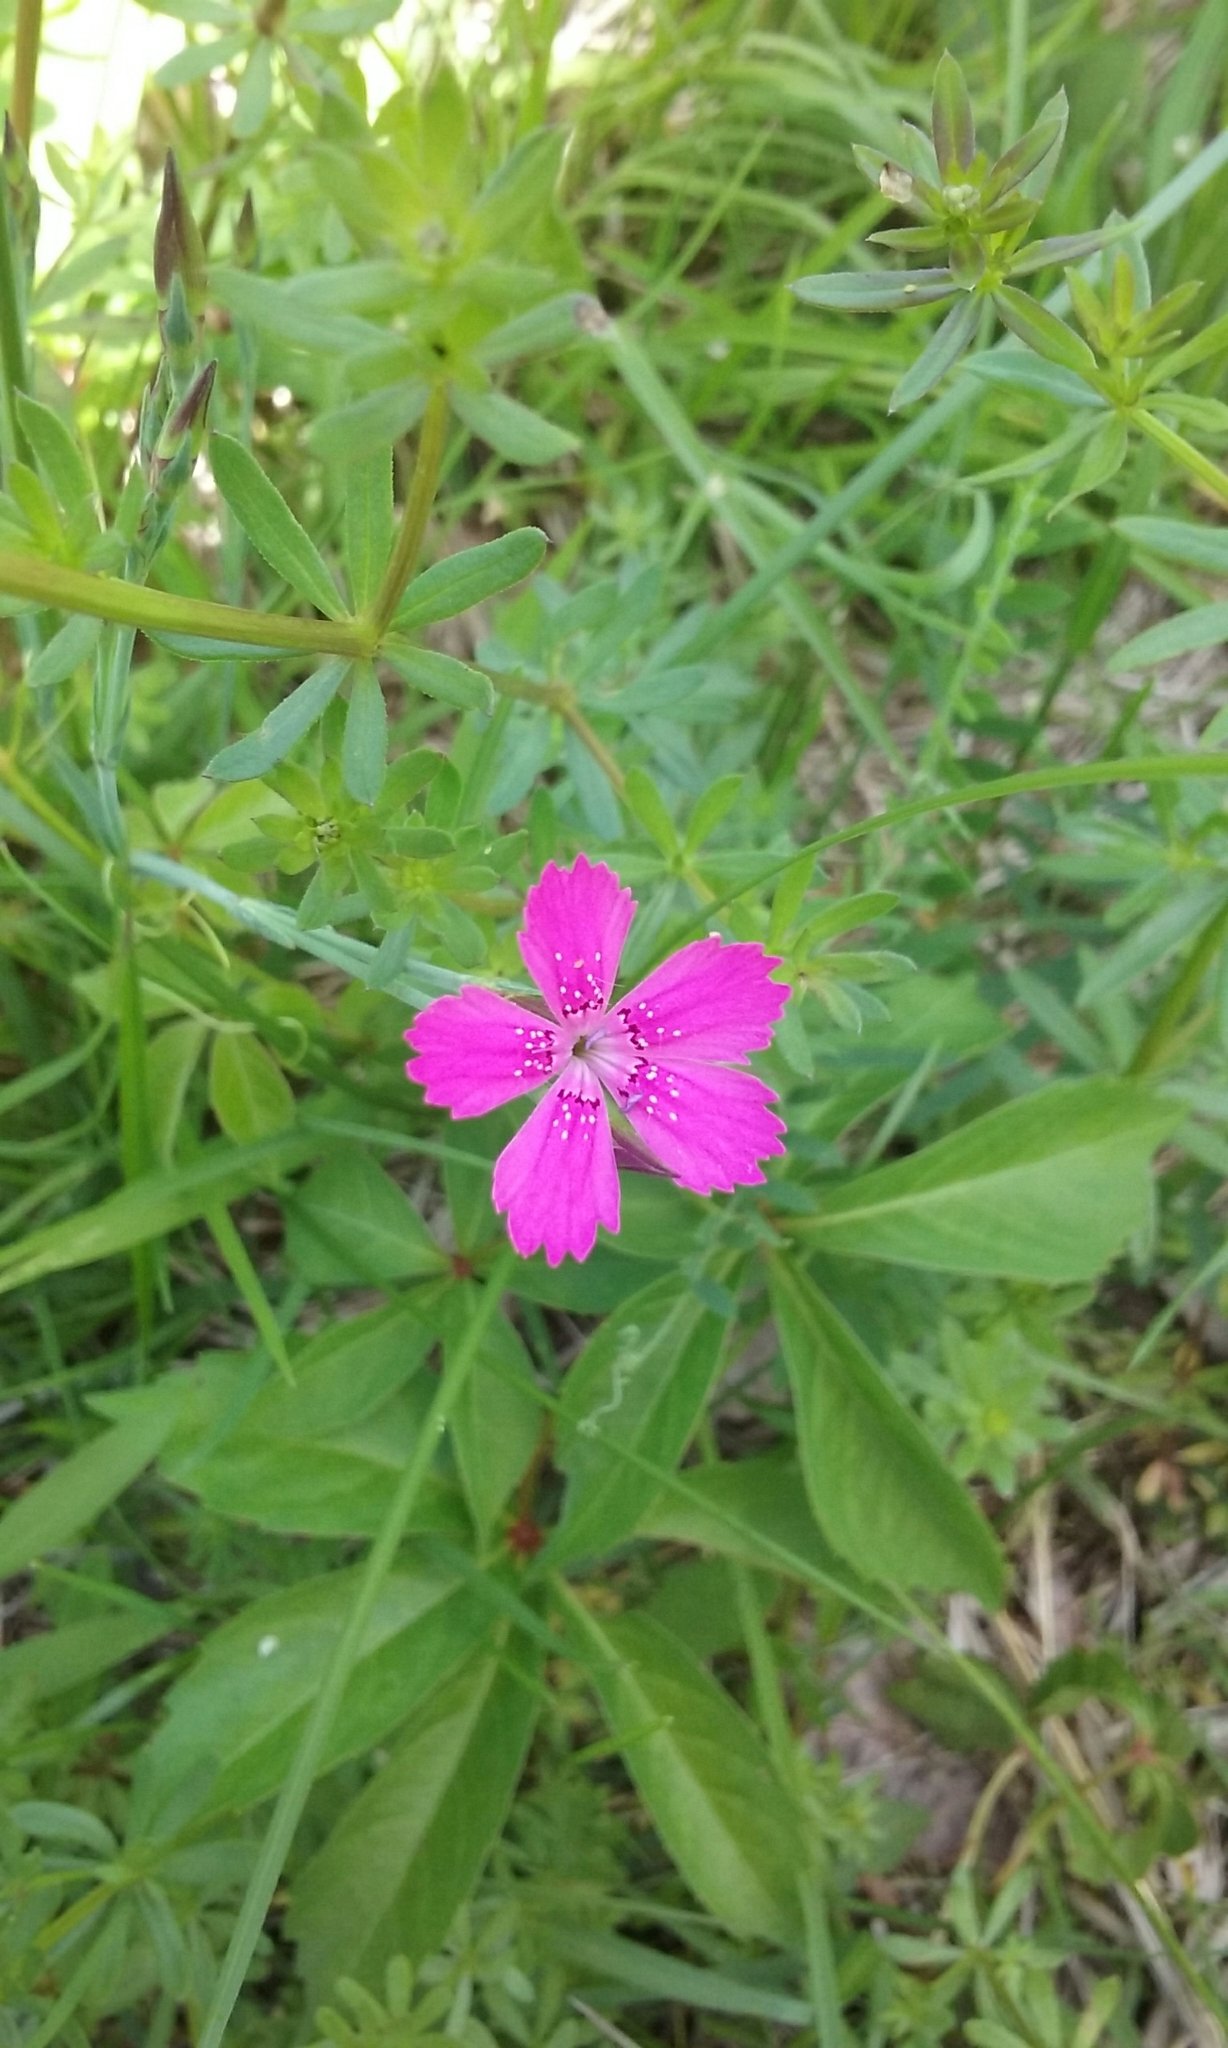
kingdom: Plantae
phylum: Tracheophyta
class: Magnoliopsida
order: Caryophyllales
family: Caryophyllaceae
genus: Dianthus
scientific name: Dianthus deltoides
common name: Maiden pink
